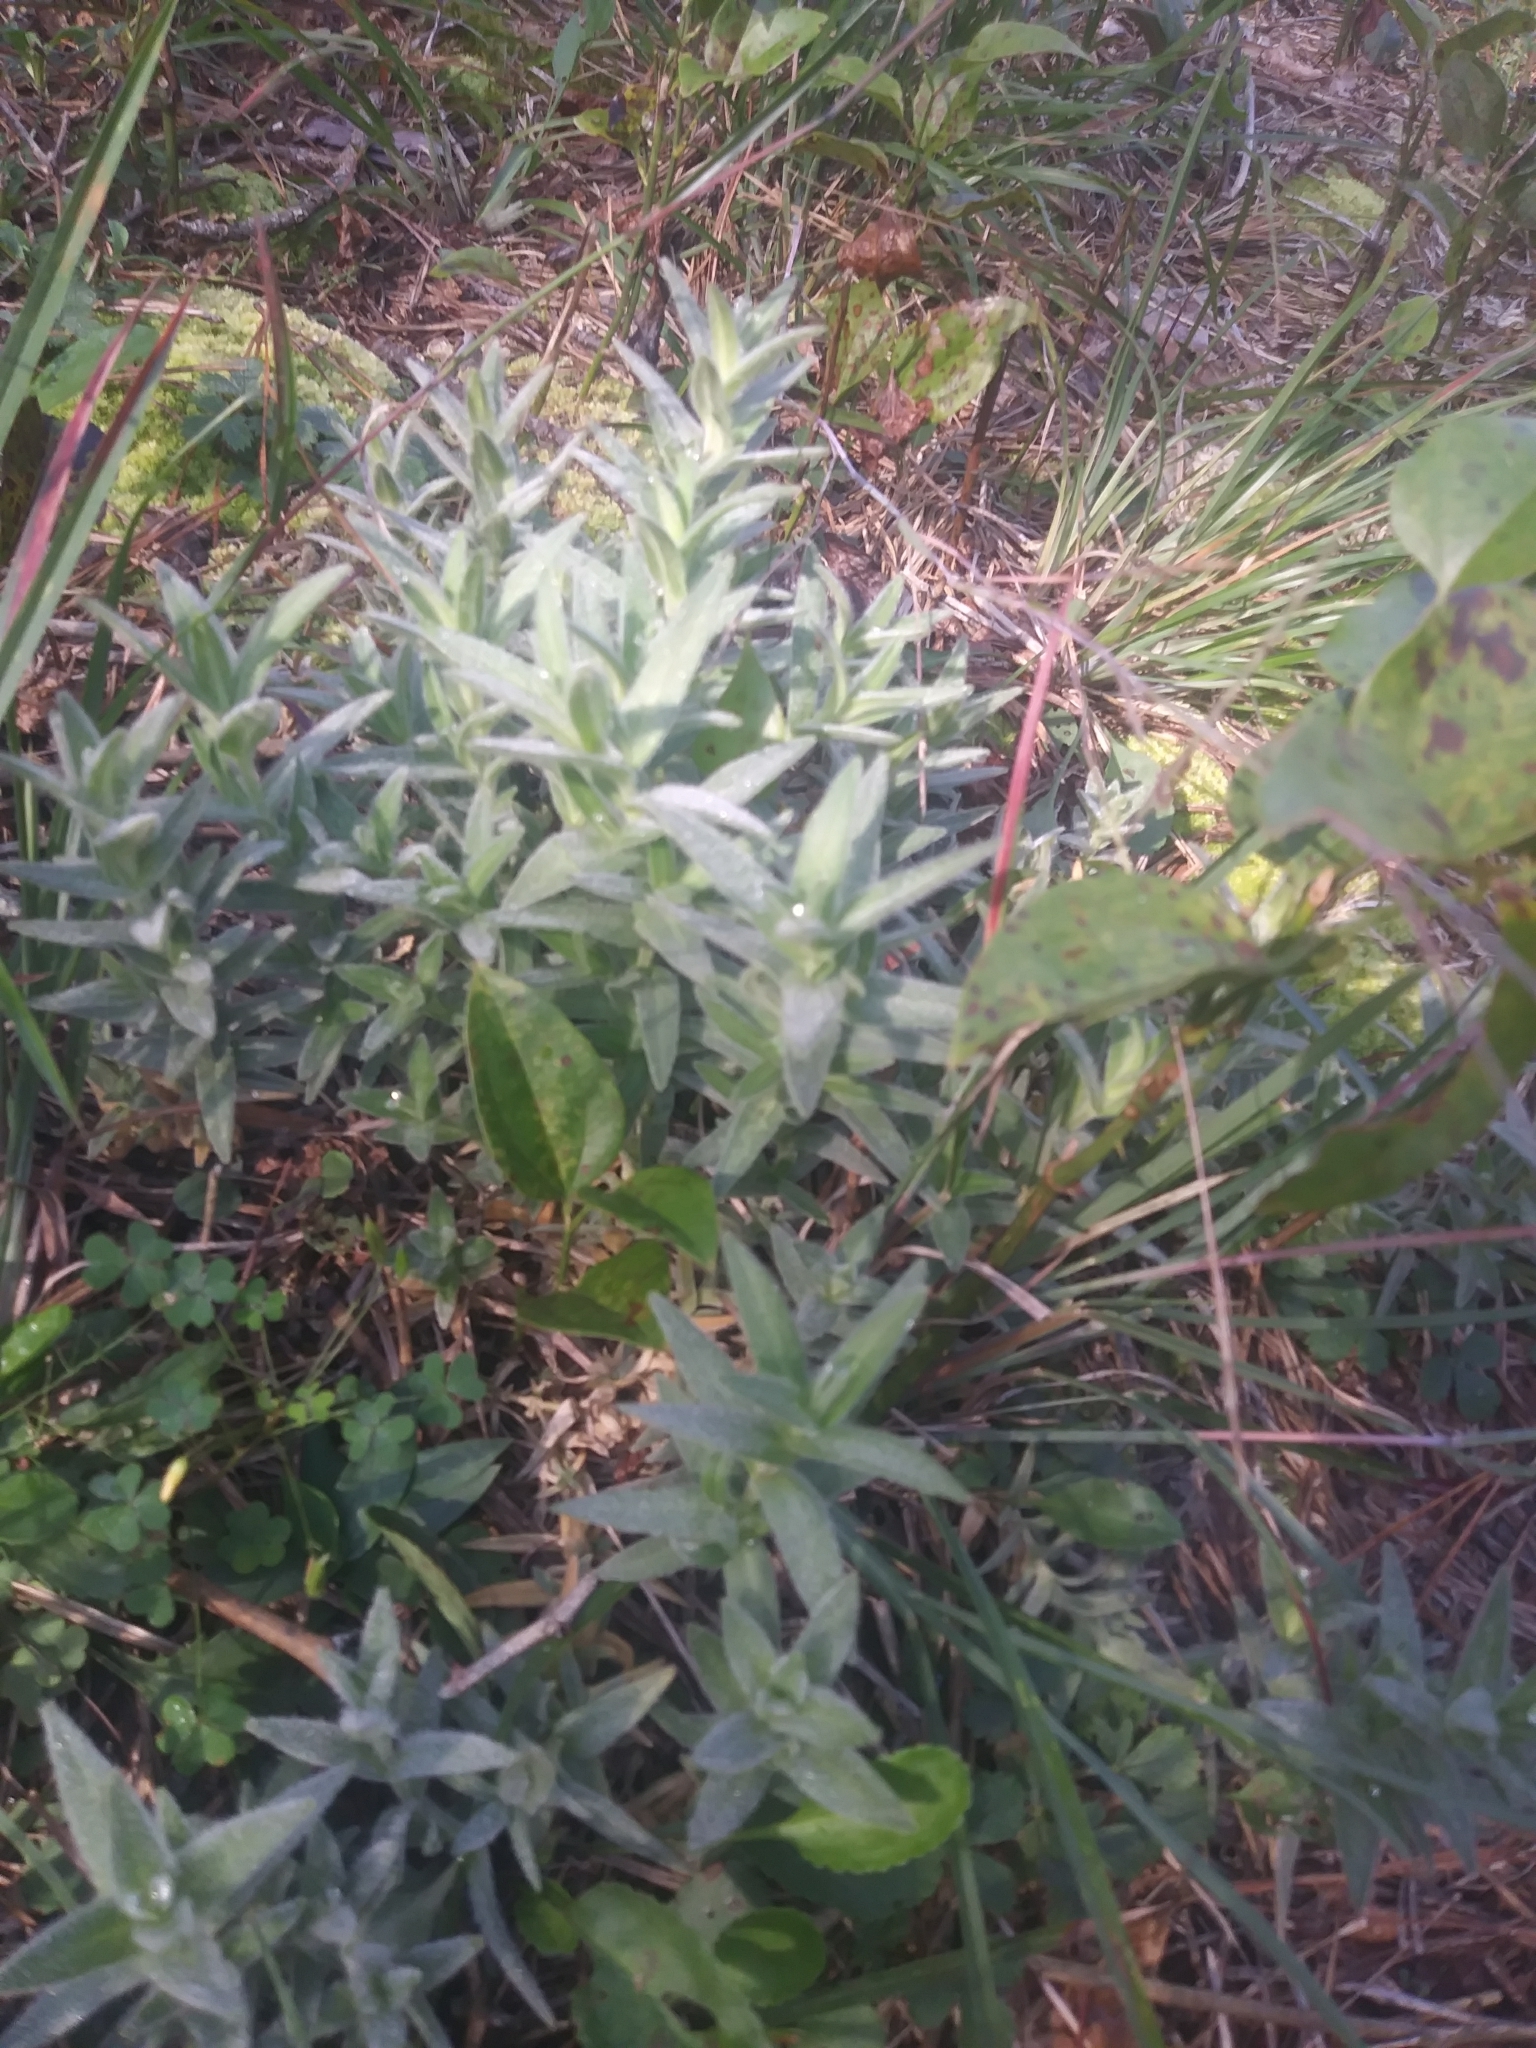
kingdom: Plantae
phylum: Tracheophyta
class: Magnoliopsida
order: Caryophyllales
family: Caryophyllaceae
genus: Cerastium
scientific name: Cerastium velutinum
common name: Barren chickweed
